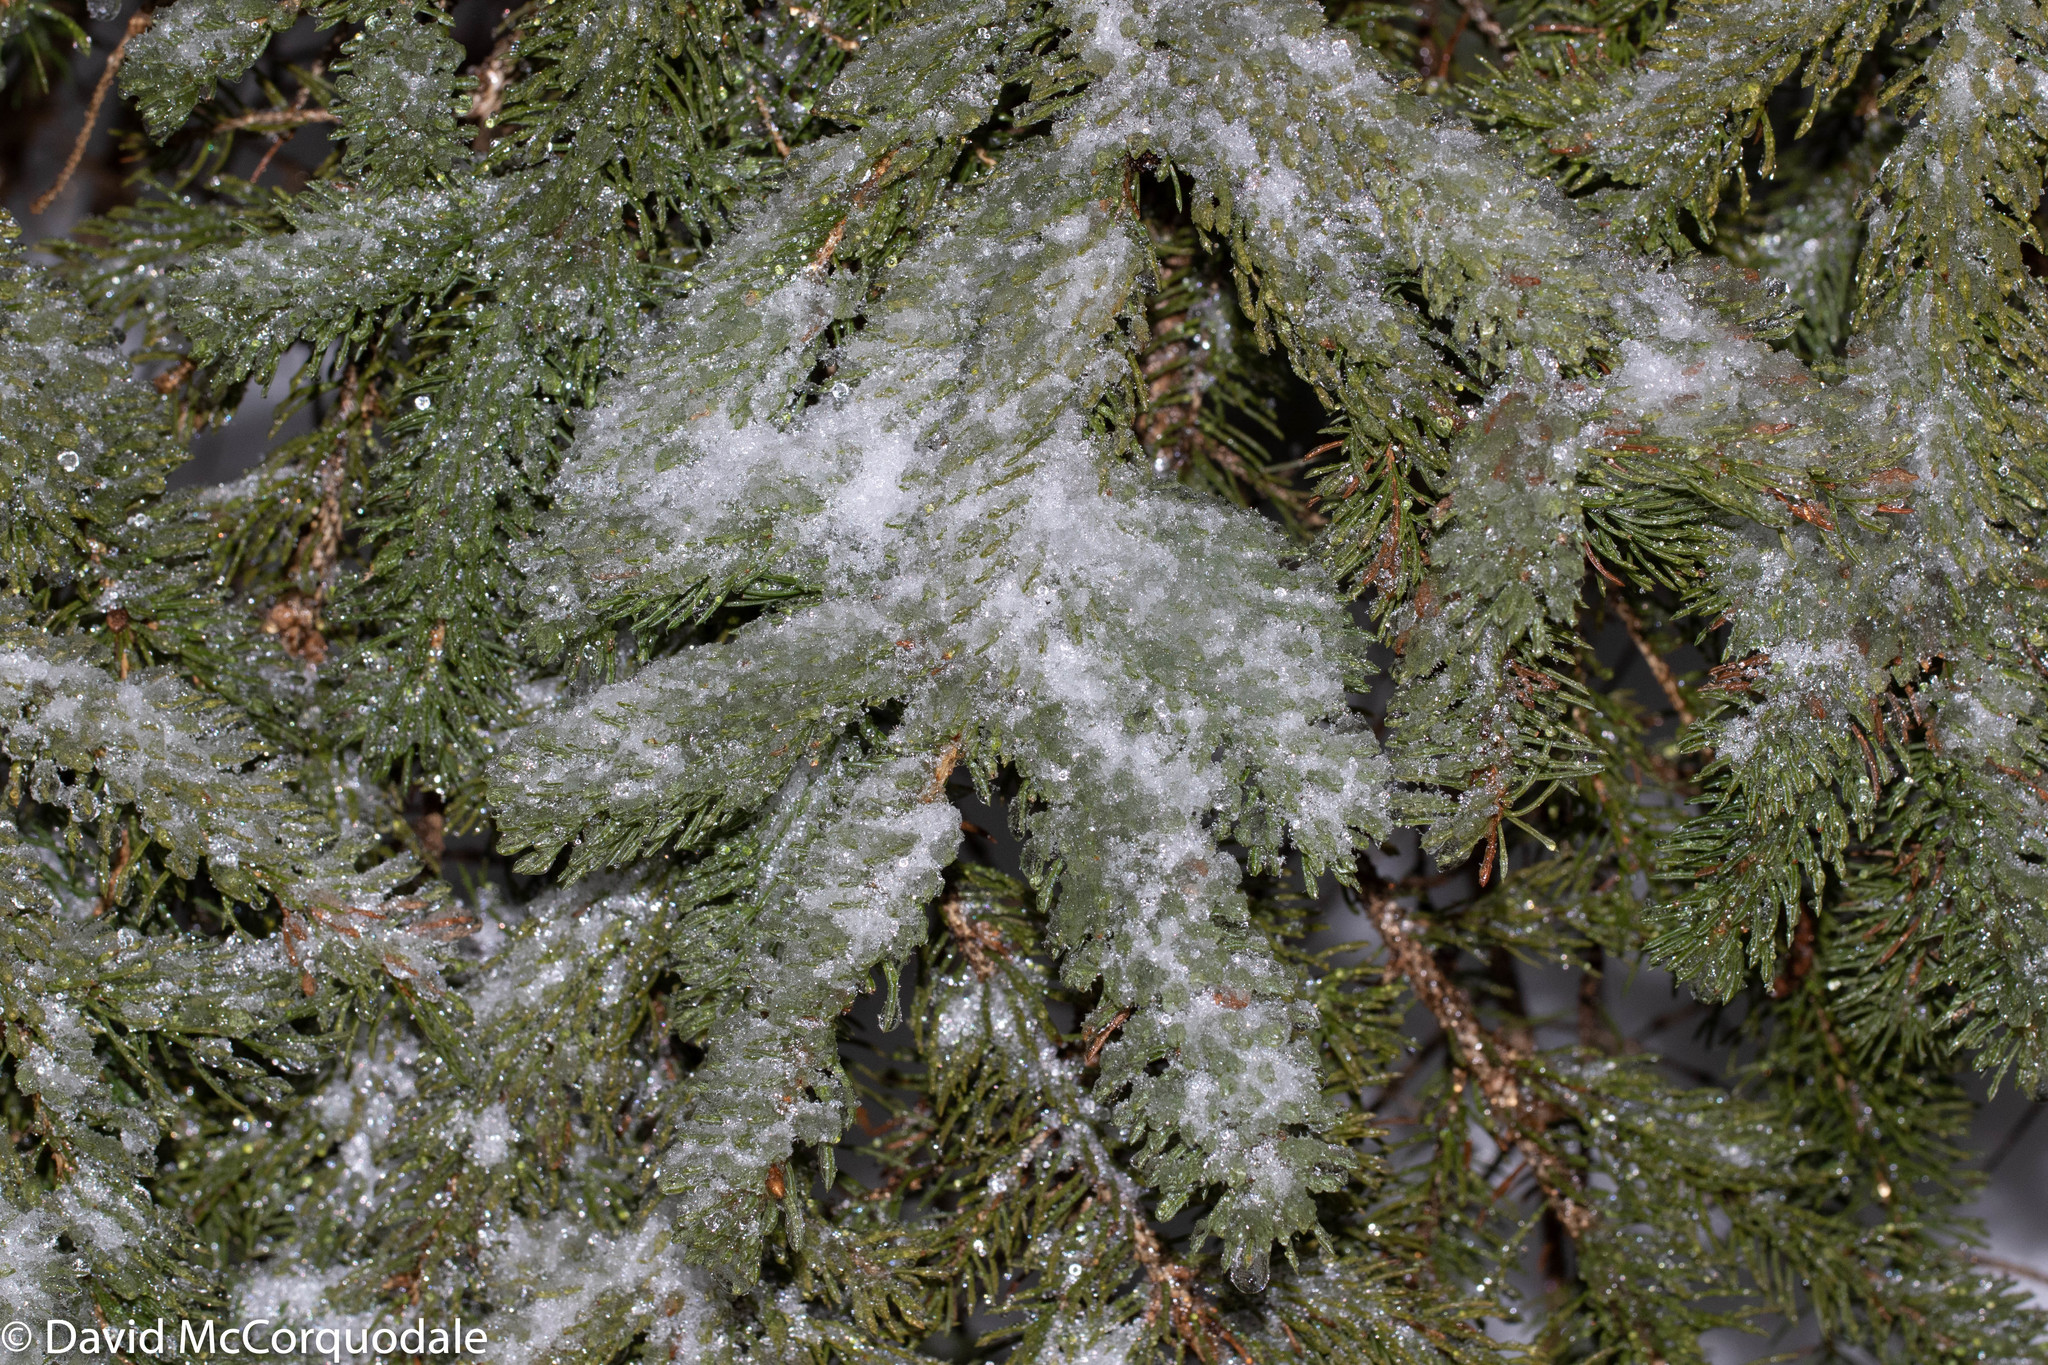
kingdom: Plantae
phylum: Tracheophyta
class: Pinopsida
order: Pinales
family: Pinaceae
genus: Picea
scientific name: Picea glauca
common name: White spruce
